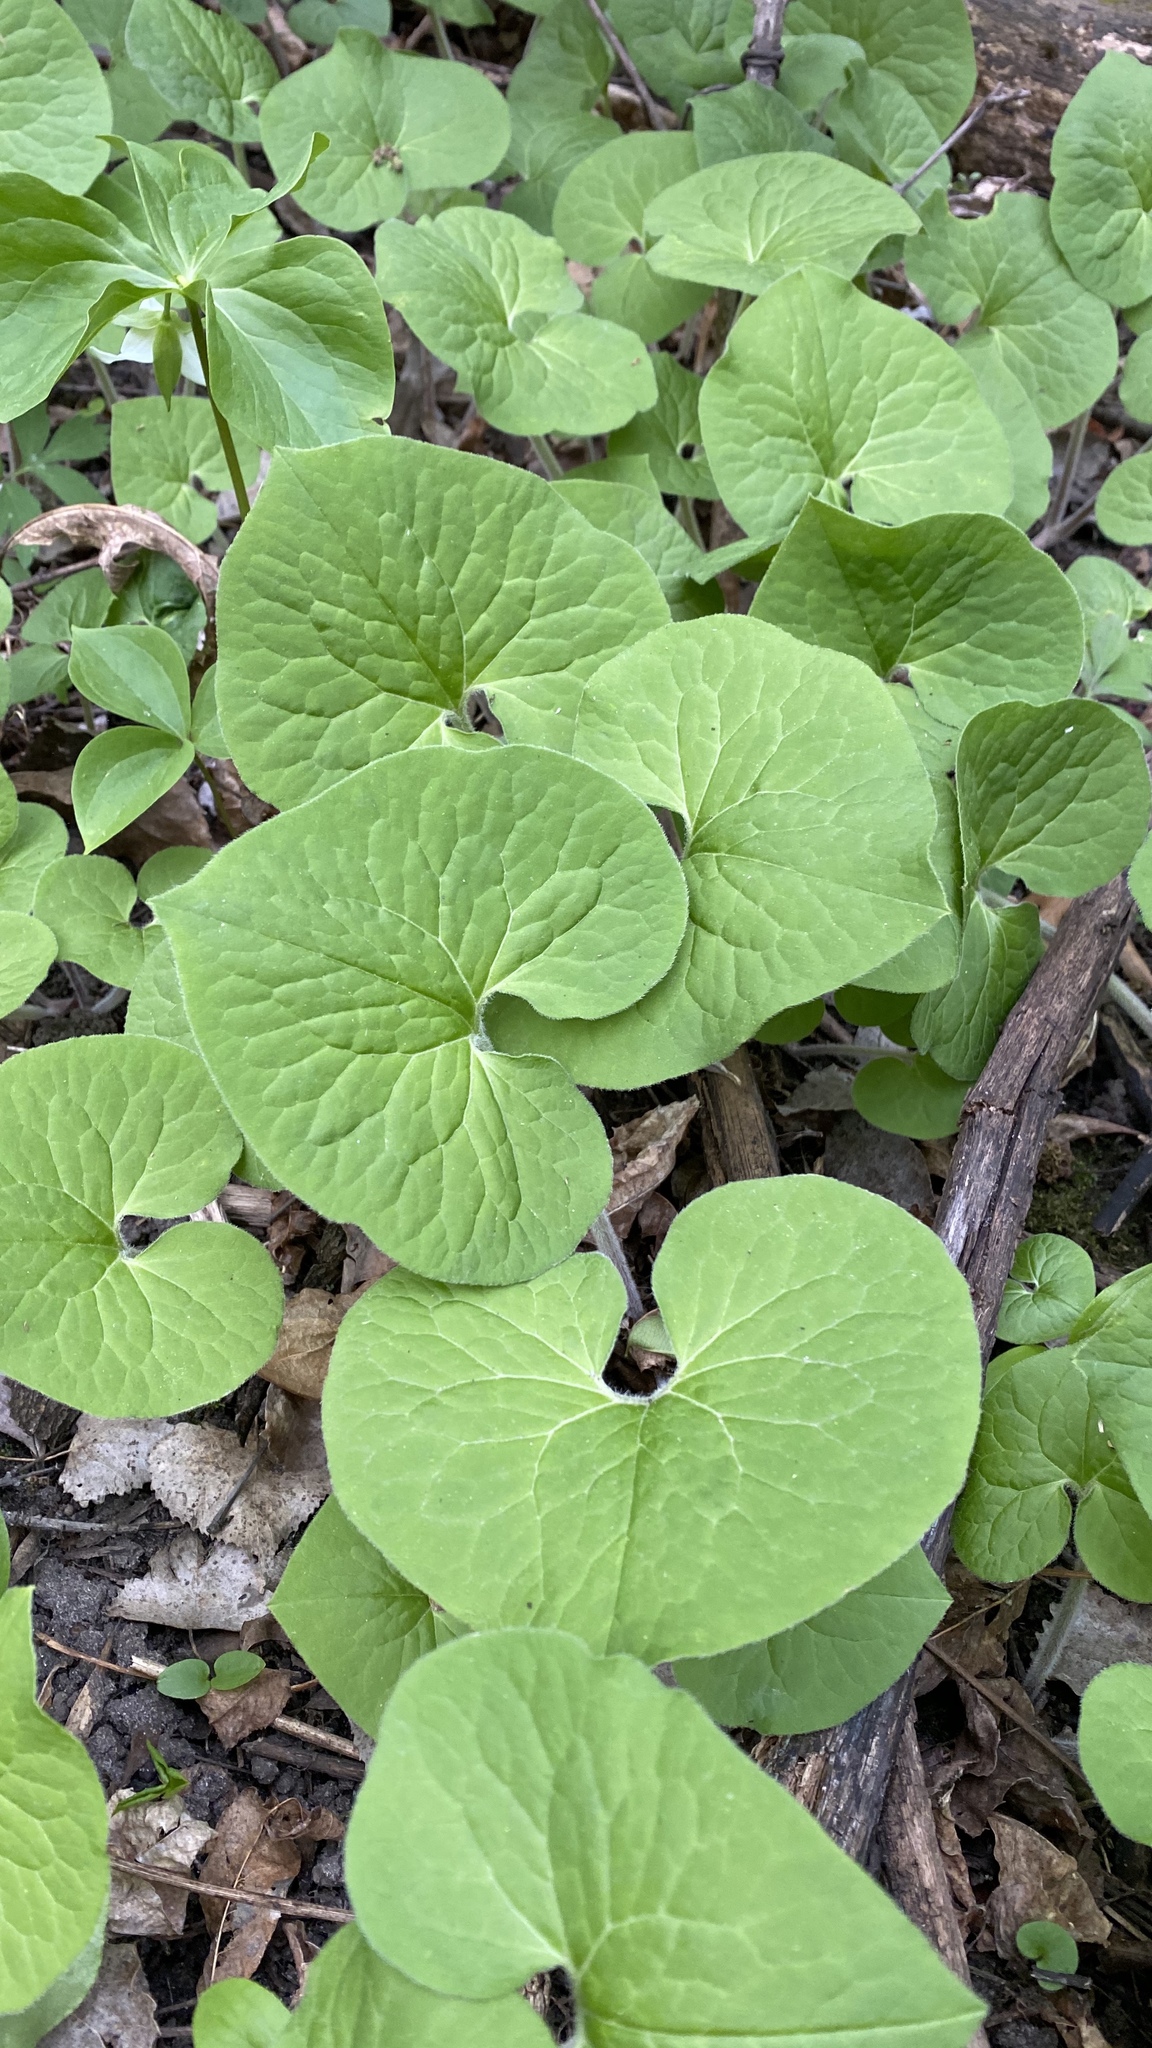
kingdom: Plantae
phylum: Tracheophyta
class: Magnoliopsida
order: Piperales
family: Aristolochiaceae
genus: Asarum
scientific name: Asarum canadense
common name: Wild ginger
